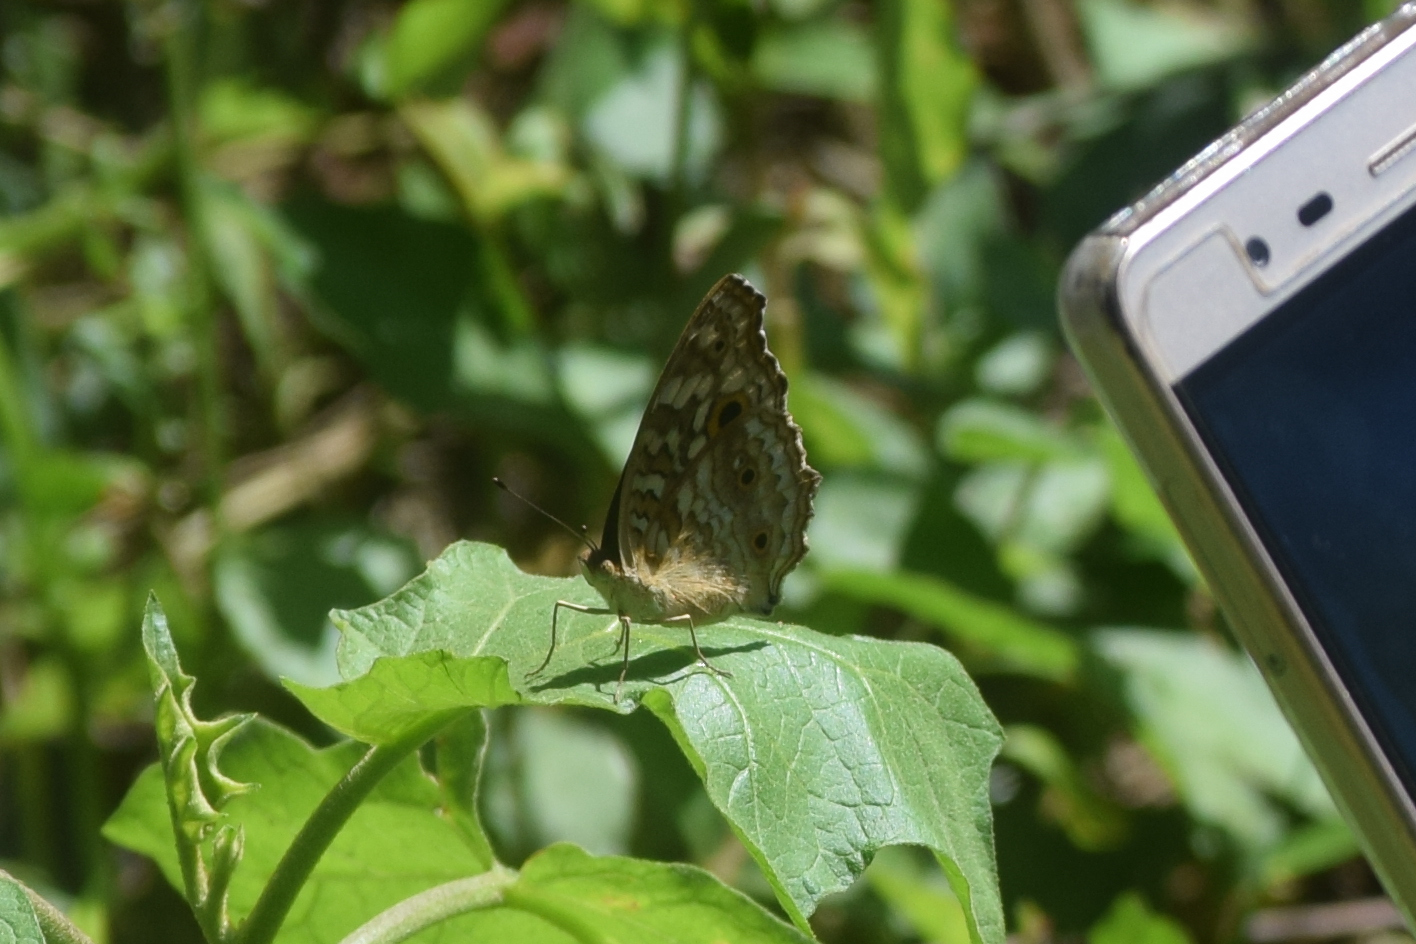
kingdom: Animalia
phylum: Arthropoda
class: Insecta
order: Lepidoptera
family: Nymphalidae
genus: Junonia
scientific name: Junonia lemonias
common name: Lemon pansy
